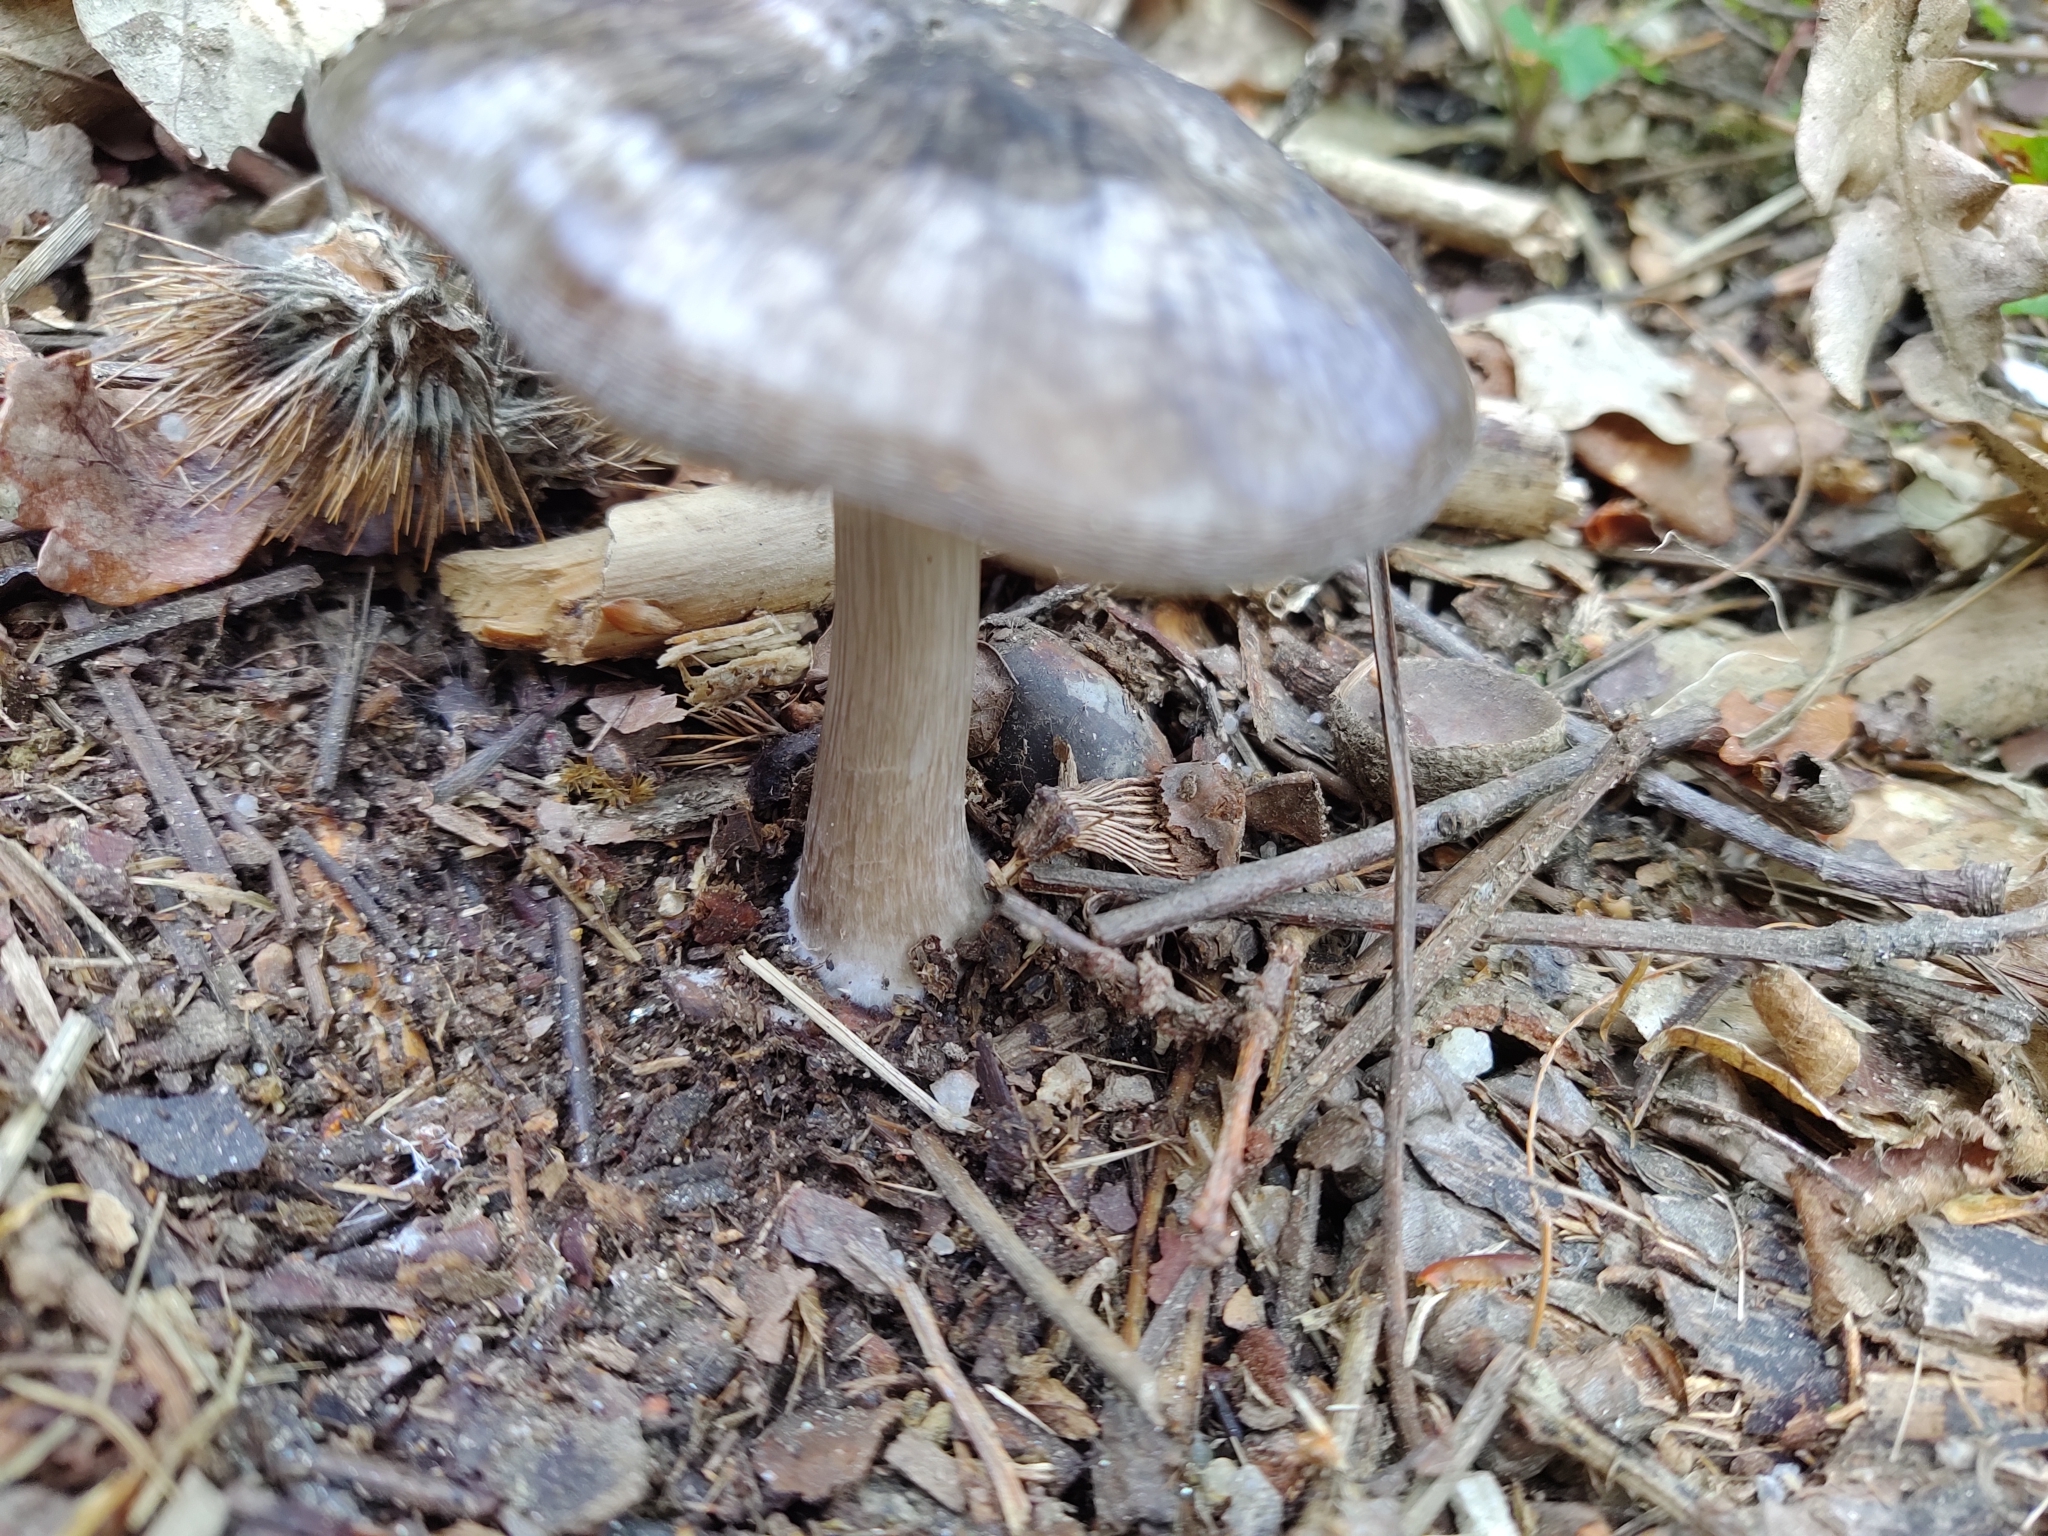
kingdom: Fungi
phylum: Basidiomycota
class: Agaricomycetes
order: Agaricales
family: Pluteaceae
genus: Pluteus
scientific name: Pluteus cervinus
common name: Deer shield
